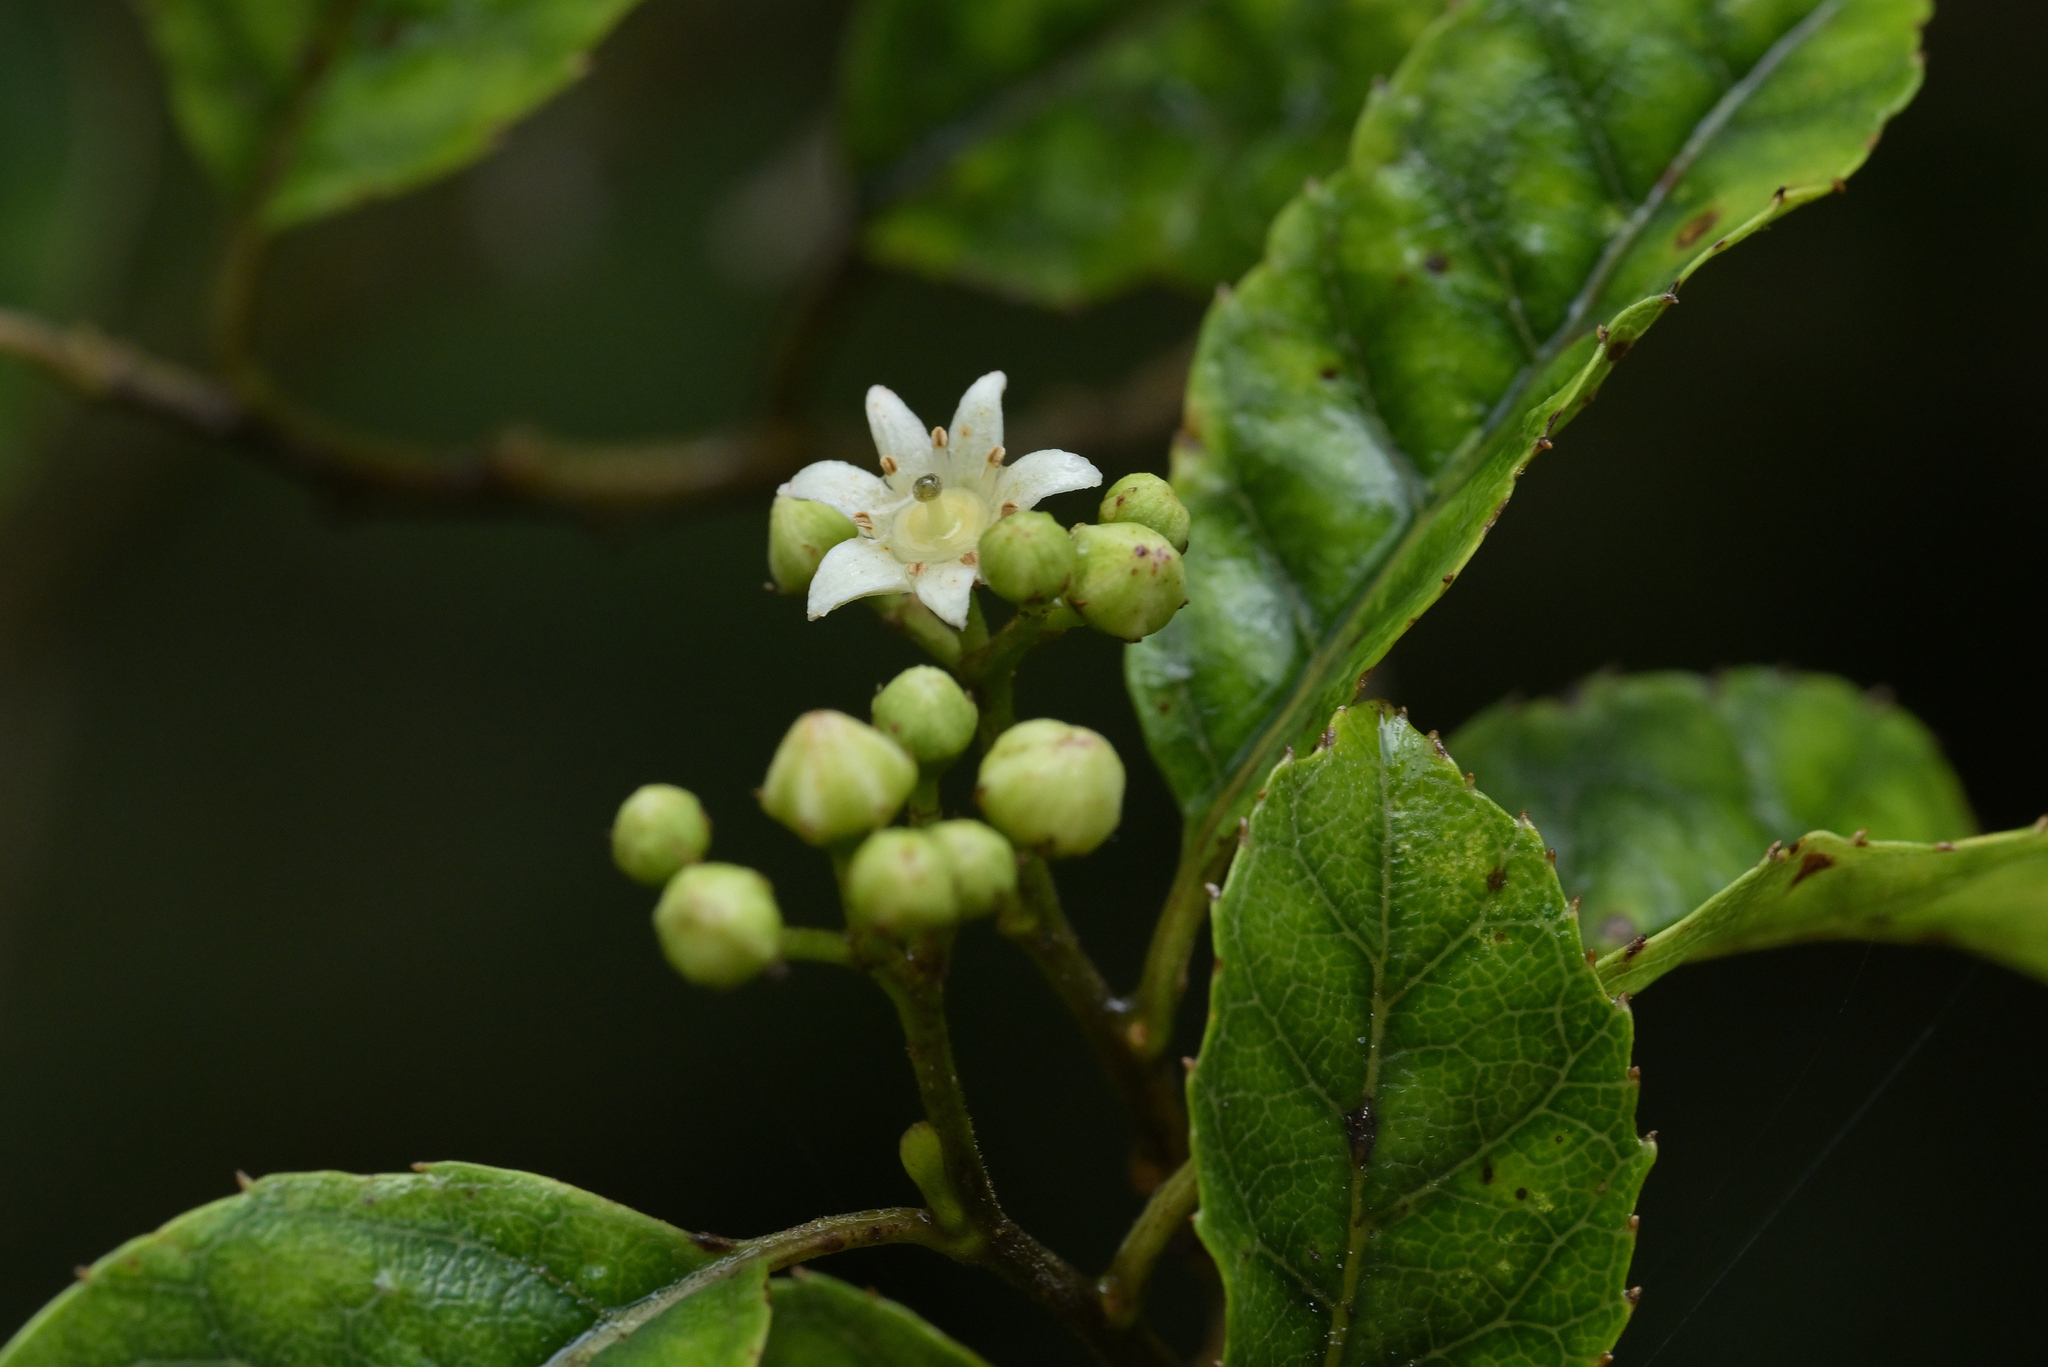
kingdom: Plantae
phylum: Tracheophyta
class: Magnoliopsida
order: Asterales
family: Rousseaceae
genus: Carpodetus
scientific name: Carpodetus serratus
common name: White mapau
